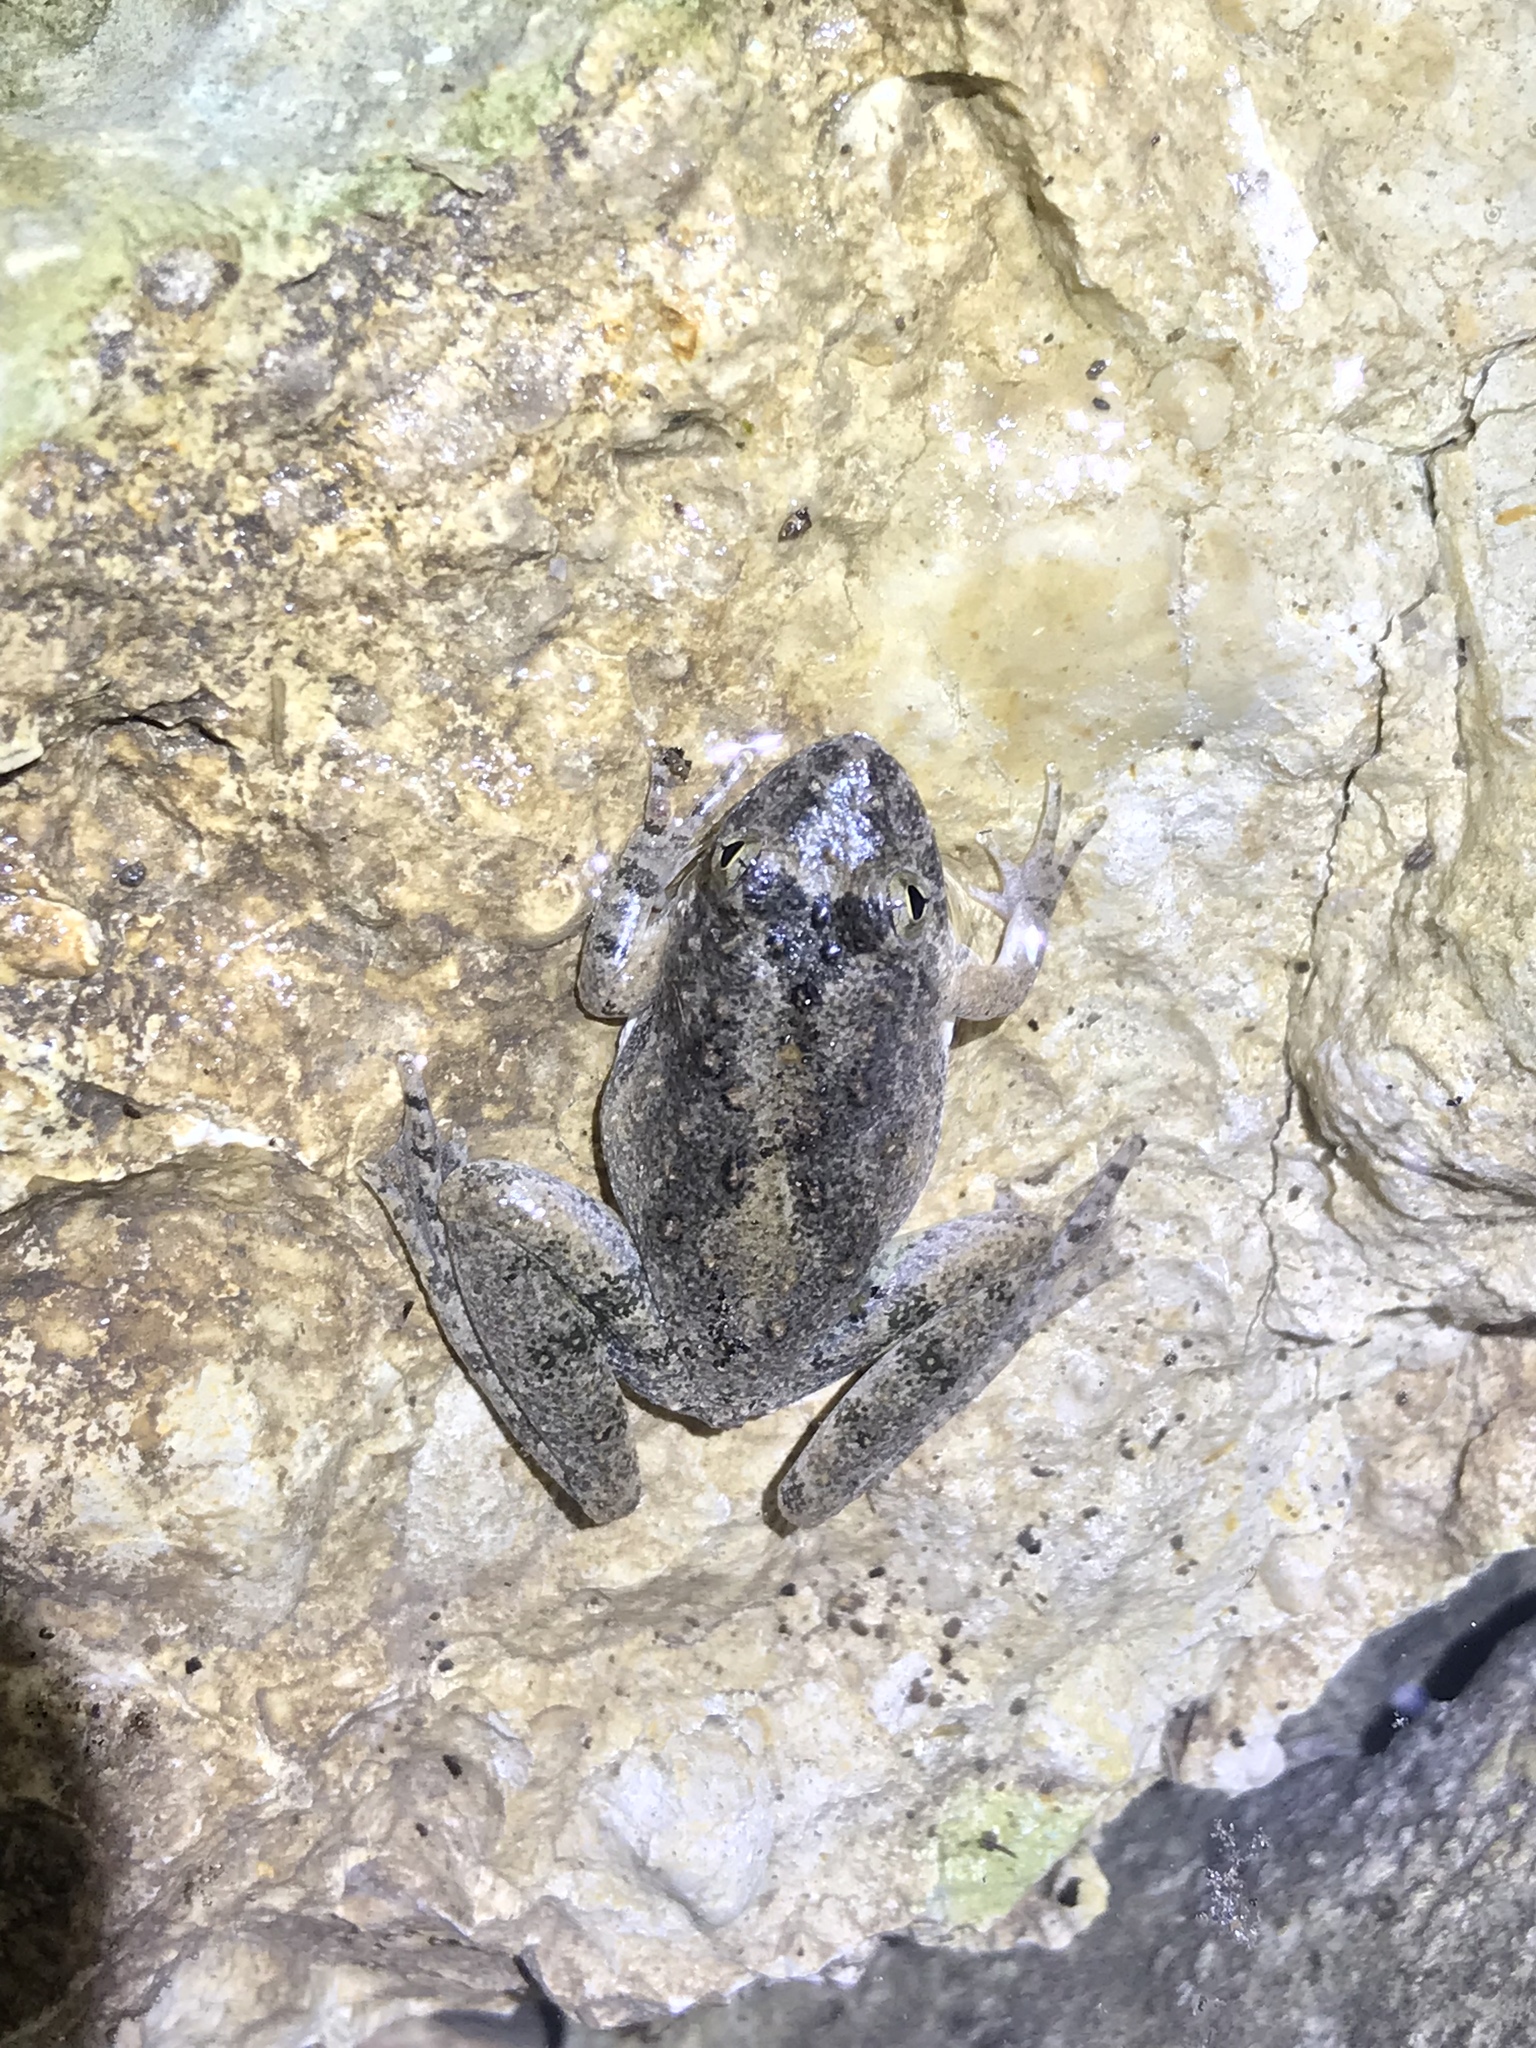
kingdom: Animalia
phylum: Chordata
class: Amphibia
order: Anura
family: Hylidae
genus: Acris
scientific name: Acris blanchardi
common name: Blanchard's cricket frog
